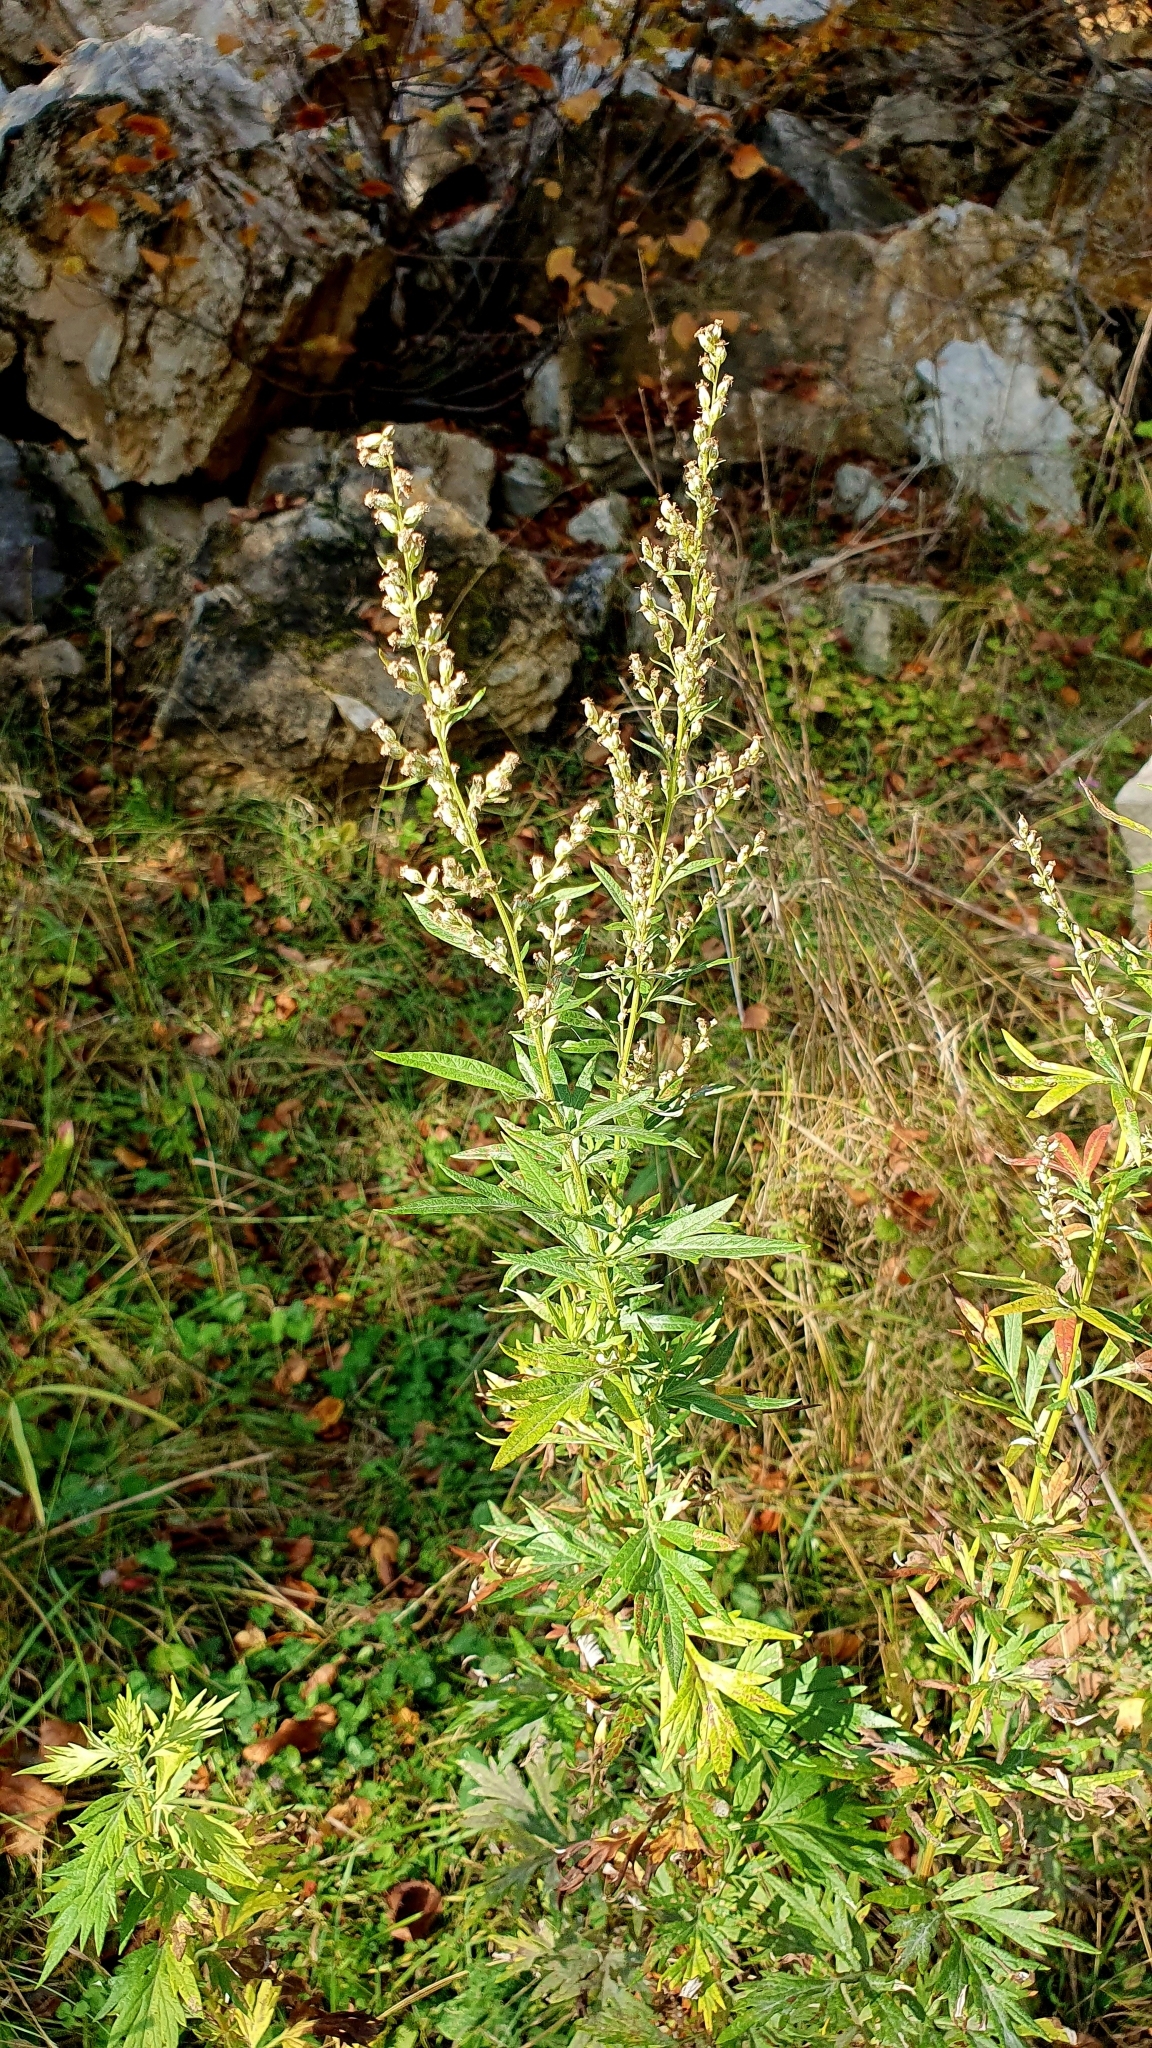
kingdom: Plantae
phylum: Tracheophyta
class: Magnoliopsida
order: Asterales
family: Asteraceae
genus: Artemisia
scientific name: Artemisia vulgaris
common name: Mugwort
